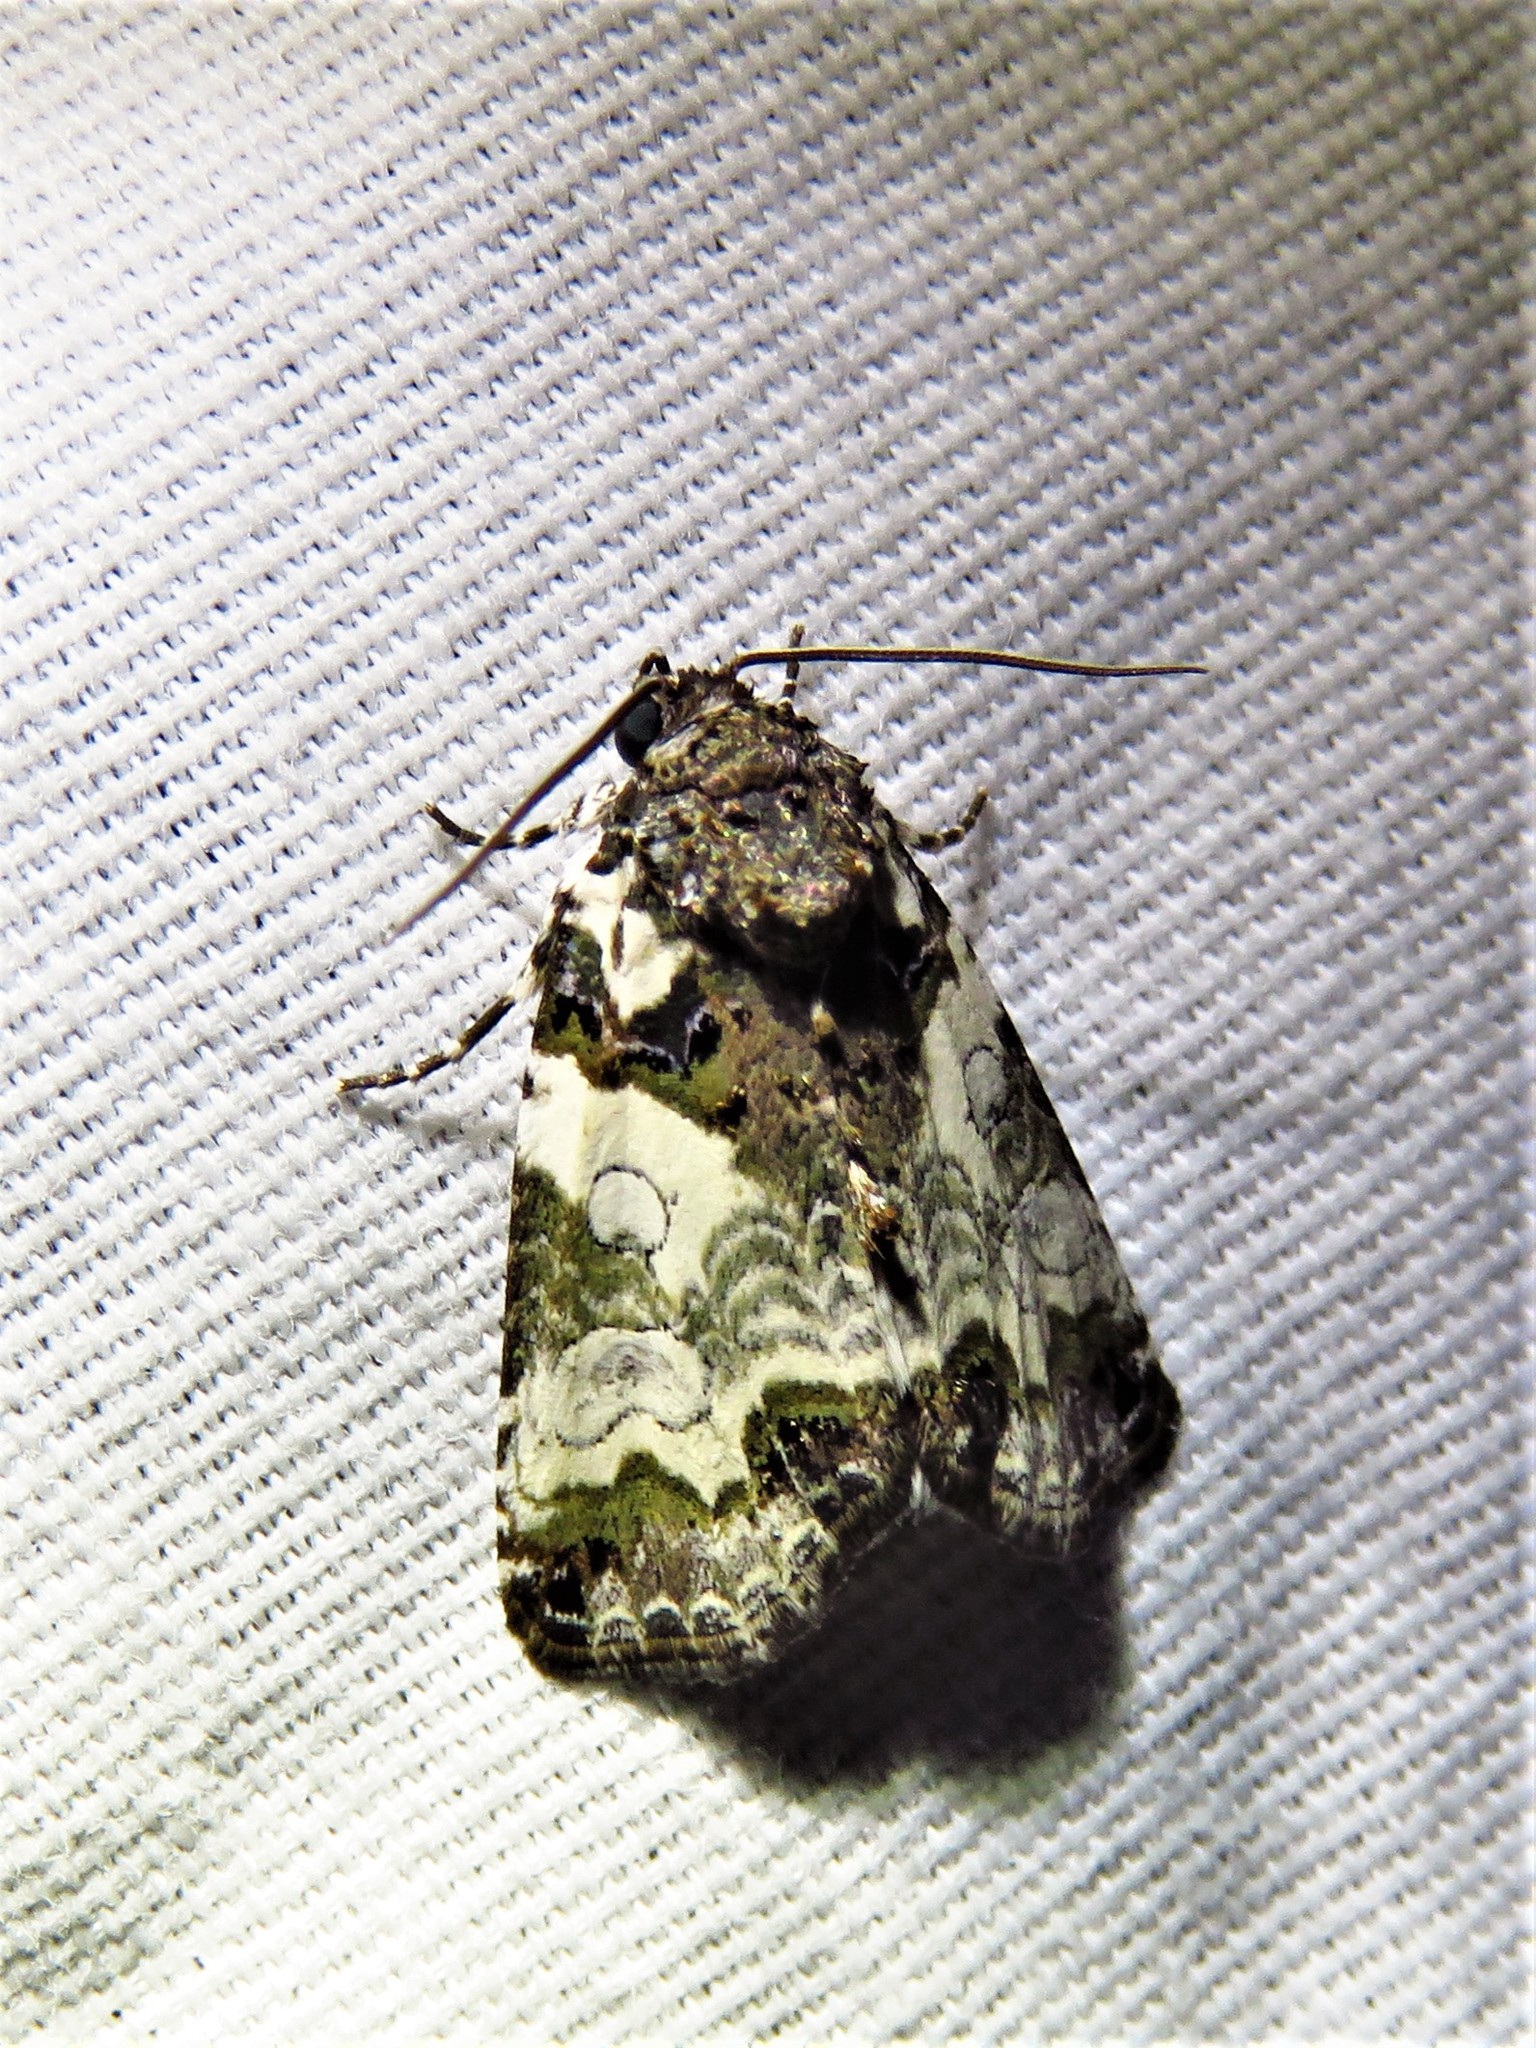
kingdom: Animalia
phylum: Arthropoda
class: Insecta
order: Lepidoptera
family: Noctuidae
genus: Cerma
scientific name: Cerma cerintha
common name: Tufted bird-dropping moth
